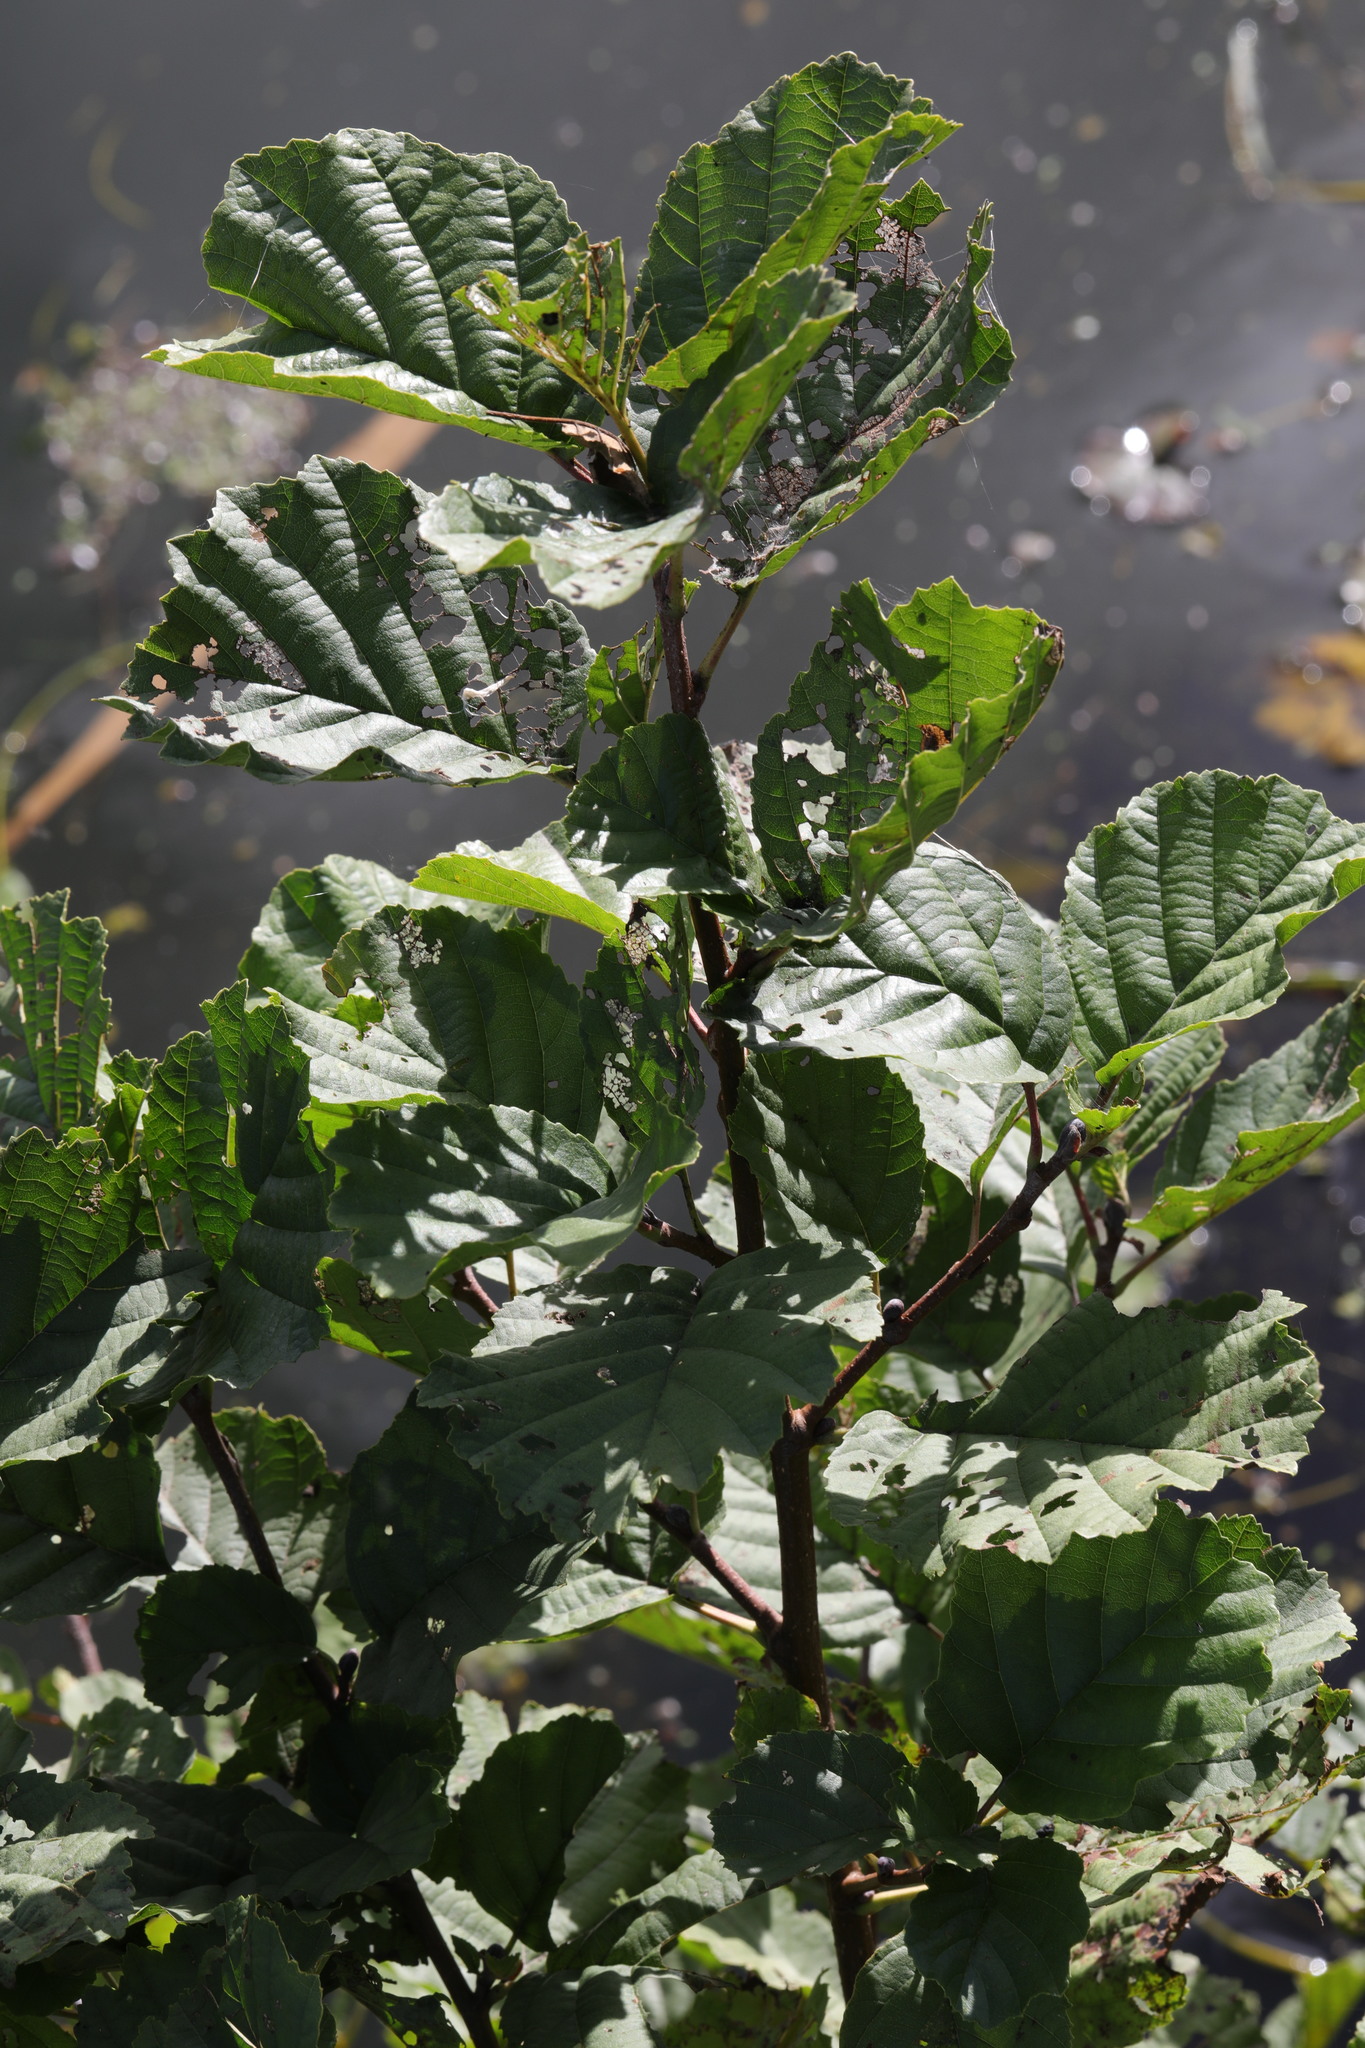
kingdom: Plantae
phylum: Tracheophyta
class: Magnoliopsida
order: Fagales
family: Betulaceae
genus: Alnus
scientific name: Alnus glutinosa
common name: Black alder
